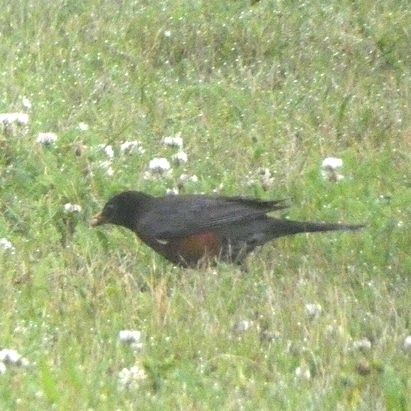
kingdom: Animalia
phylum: Chordata
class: Aves
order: Passeriformes
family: Turdidae
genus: Turdus
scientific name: Turdus migratorius
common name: American robin
